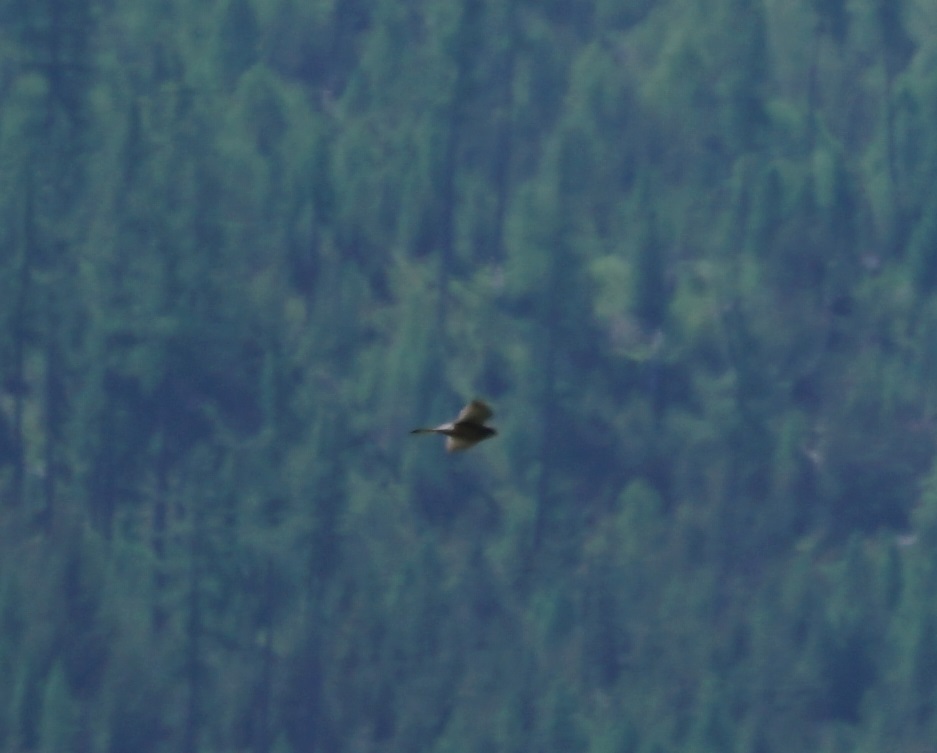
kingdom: Animalia
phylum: Chordata
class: Aves
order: Falconiformes
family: Falconidae
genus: Falco
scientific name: Falco tinnunculus
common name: Common kestrel
